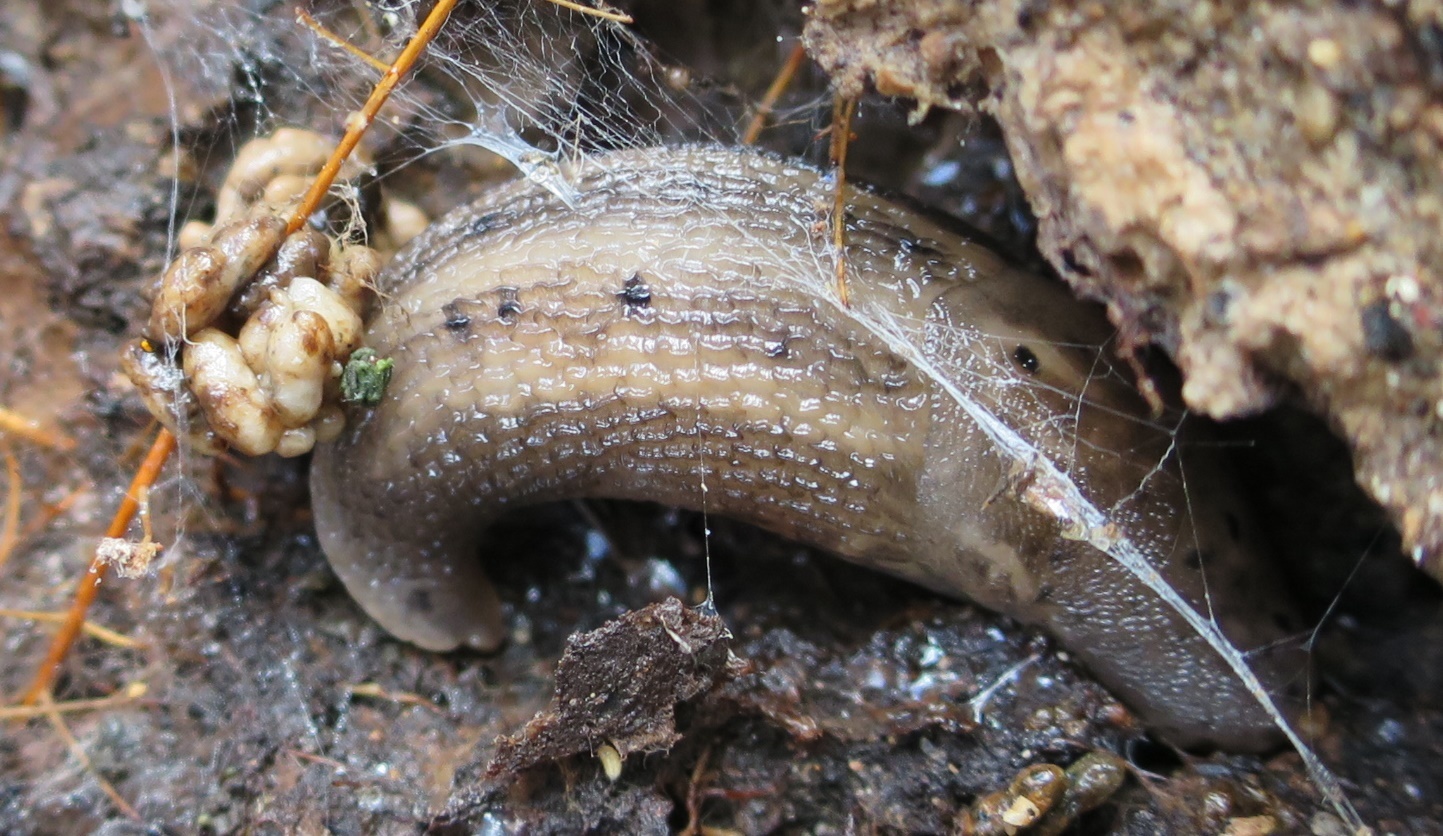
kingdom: Animalia
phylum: Mollusca
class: Gastropoda
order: Stylommatophora
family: Limacidae
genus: Limax
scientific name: Limax maximus
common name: Great grey slug
